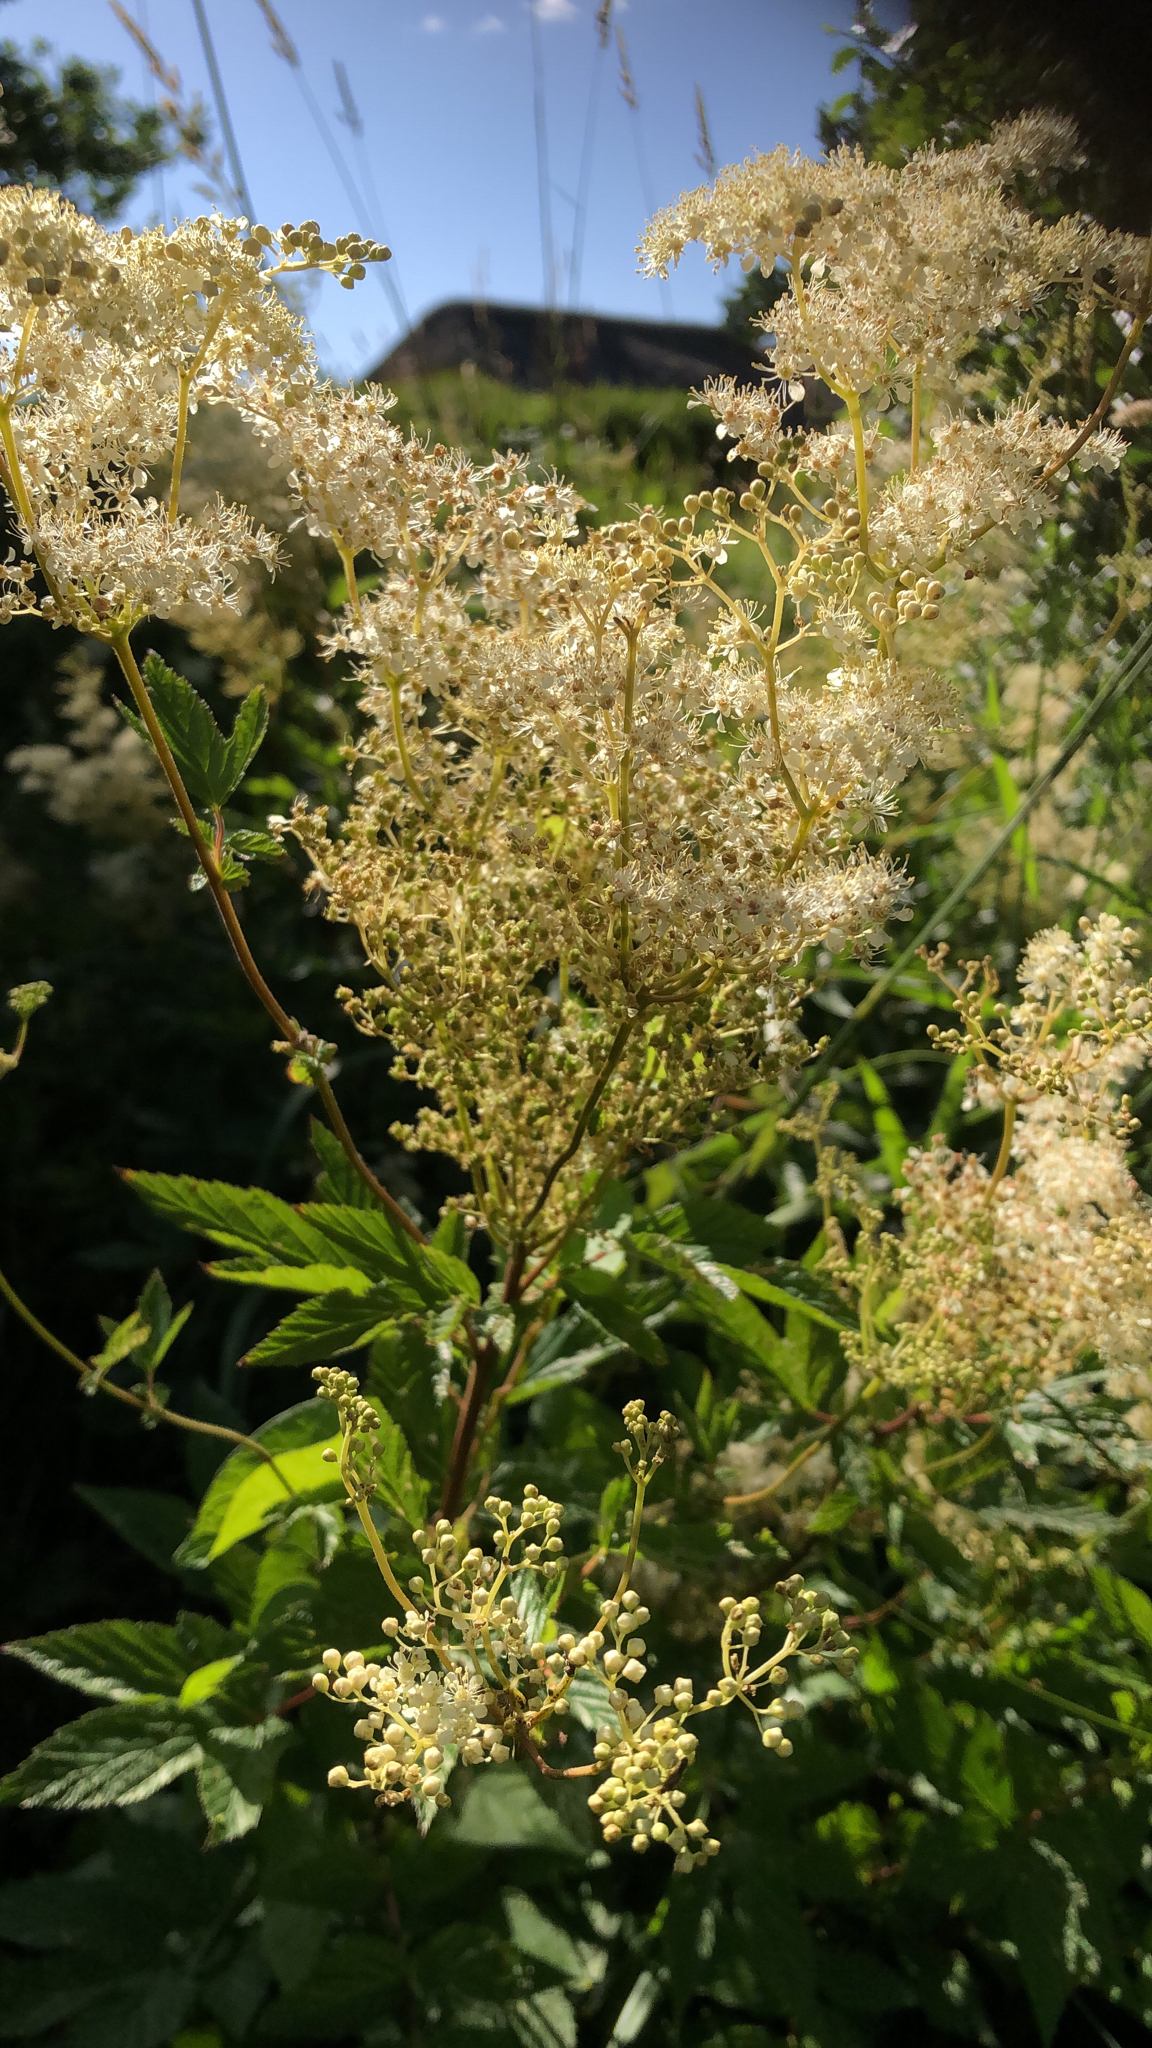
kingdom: Plantae
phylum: Tracheophyta
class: Magnoliopsida
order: Rosales
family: Rosaceae
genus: Filipendula
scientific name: Filipendula ulmaria
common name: Meadowsweet
